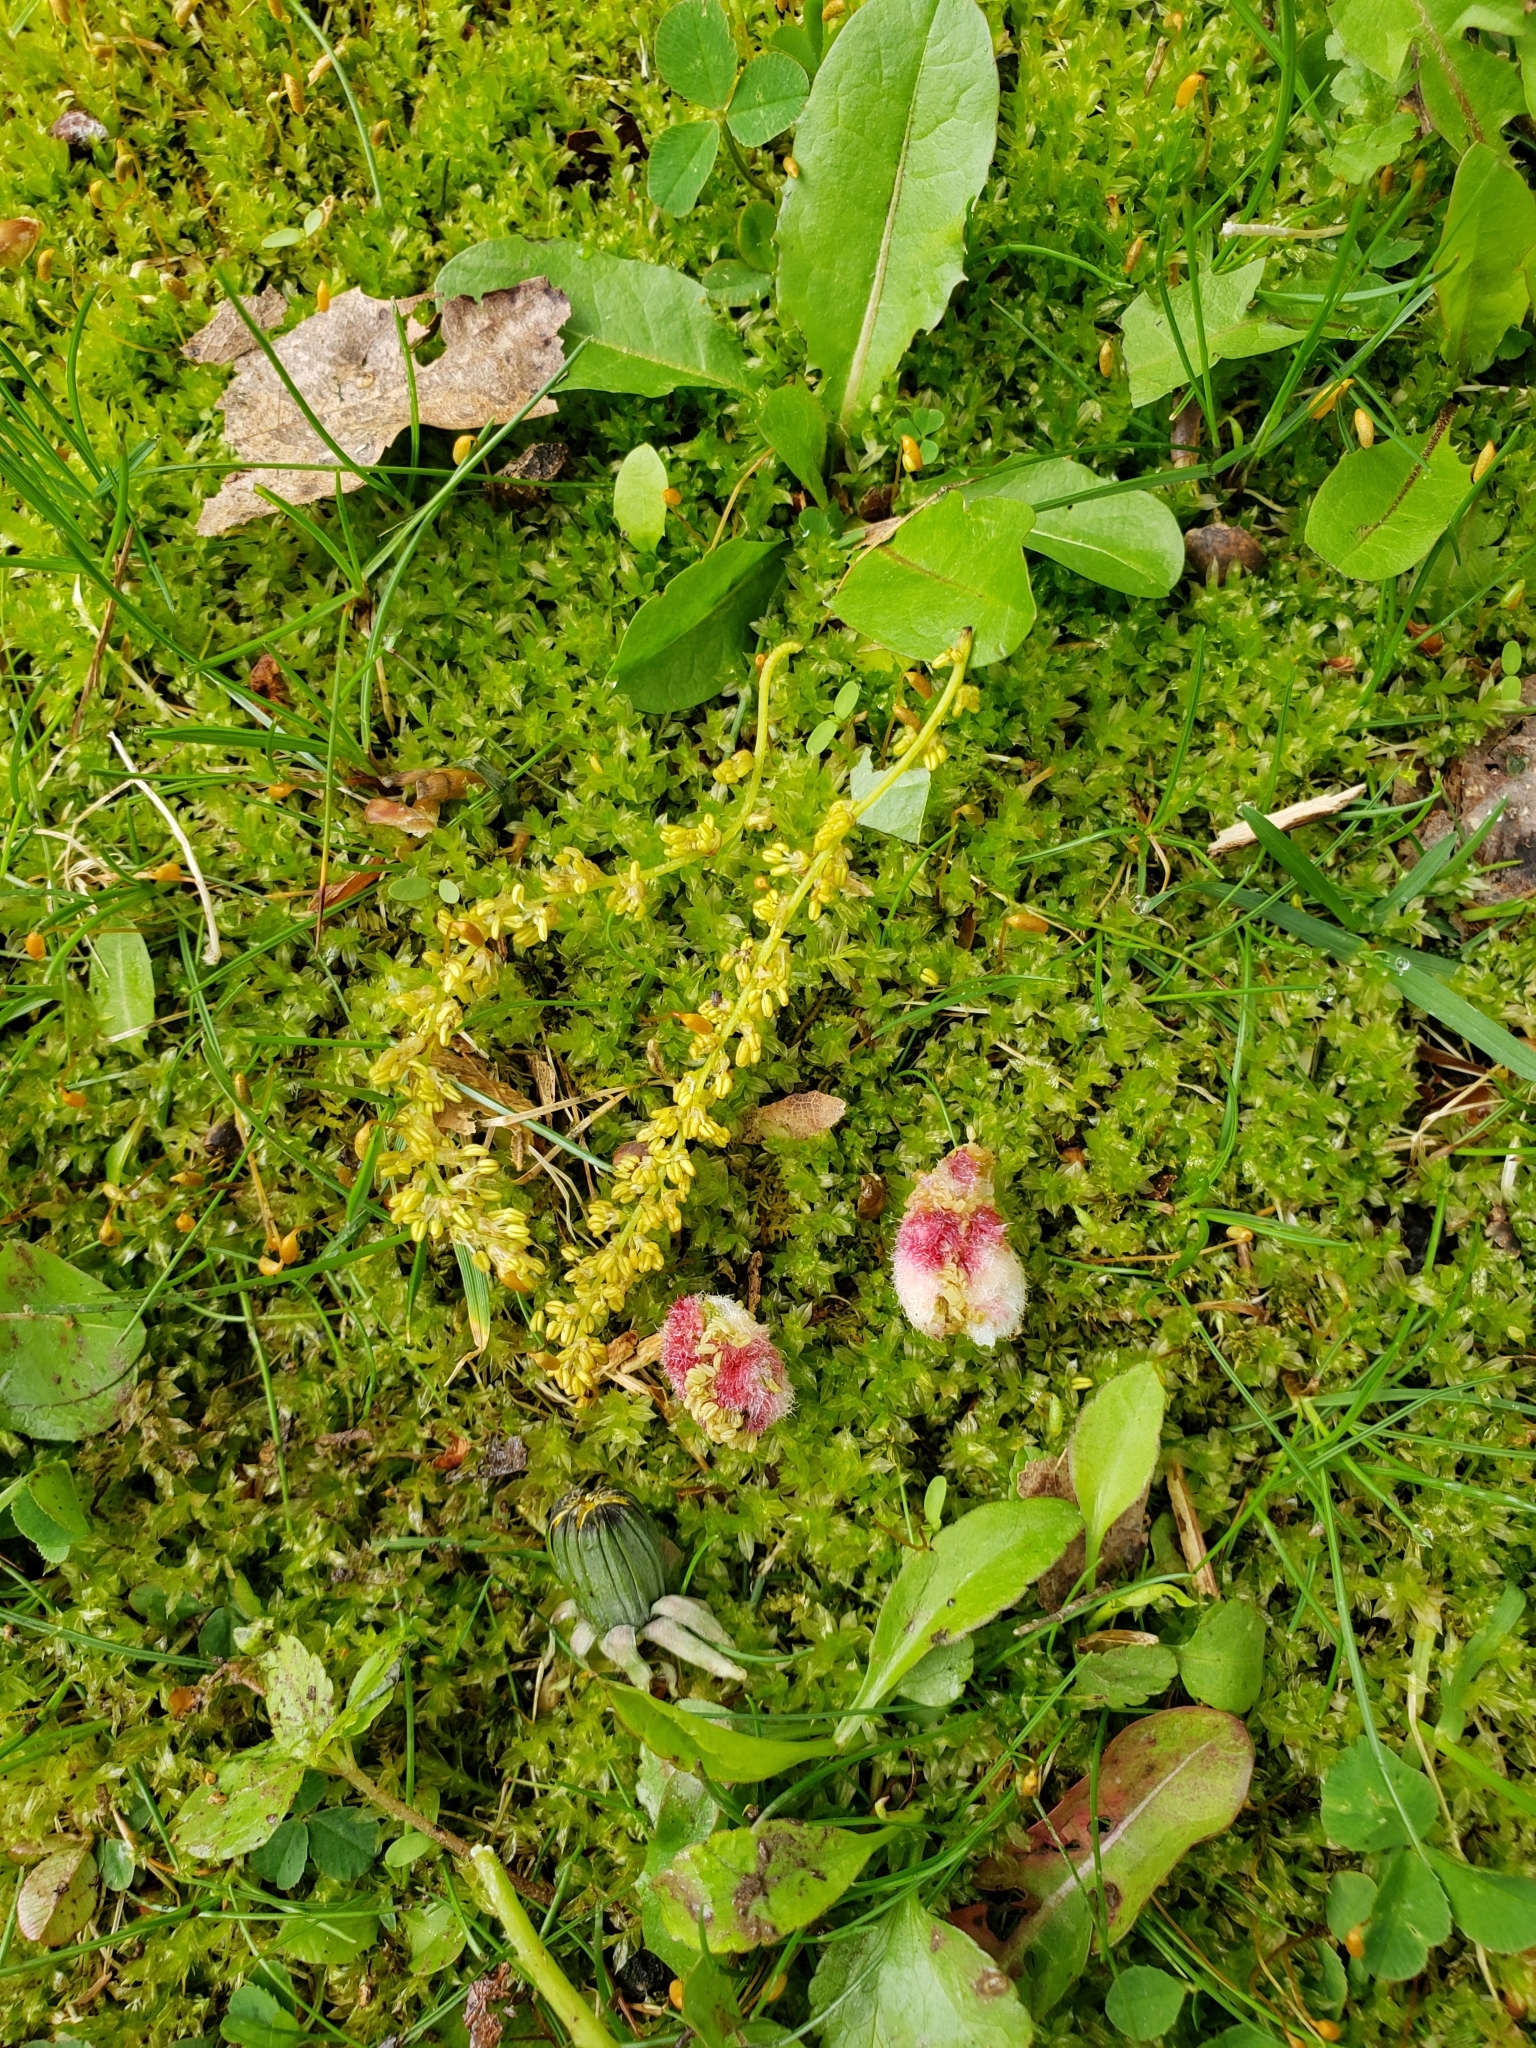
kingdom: Animalia
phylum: Arthropoda
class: Insecta
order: Hymenoptera
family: Cynipidae
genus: Callirhytis
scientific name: Callirhytis
